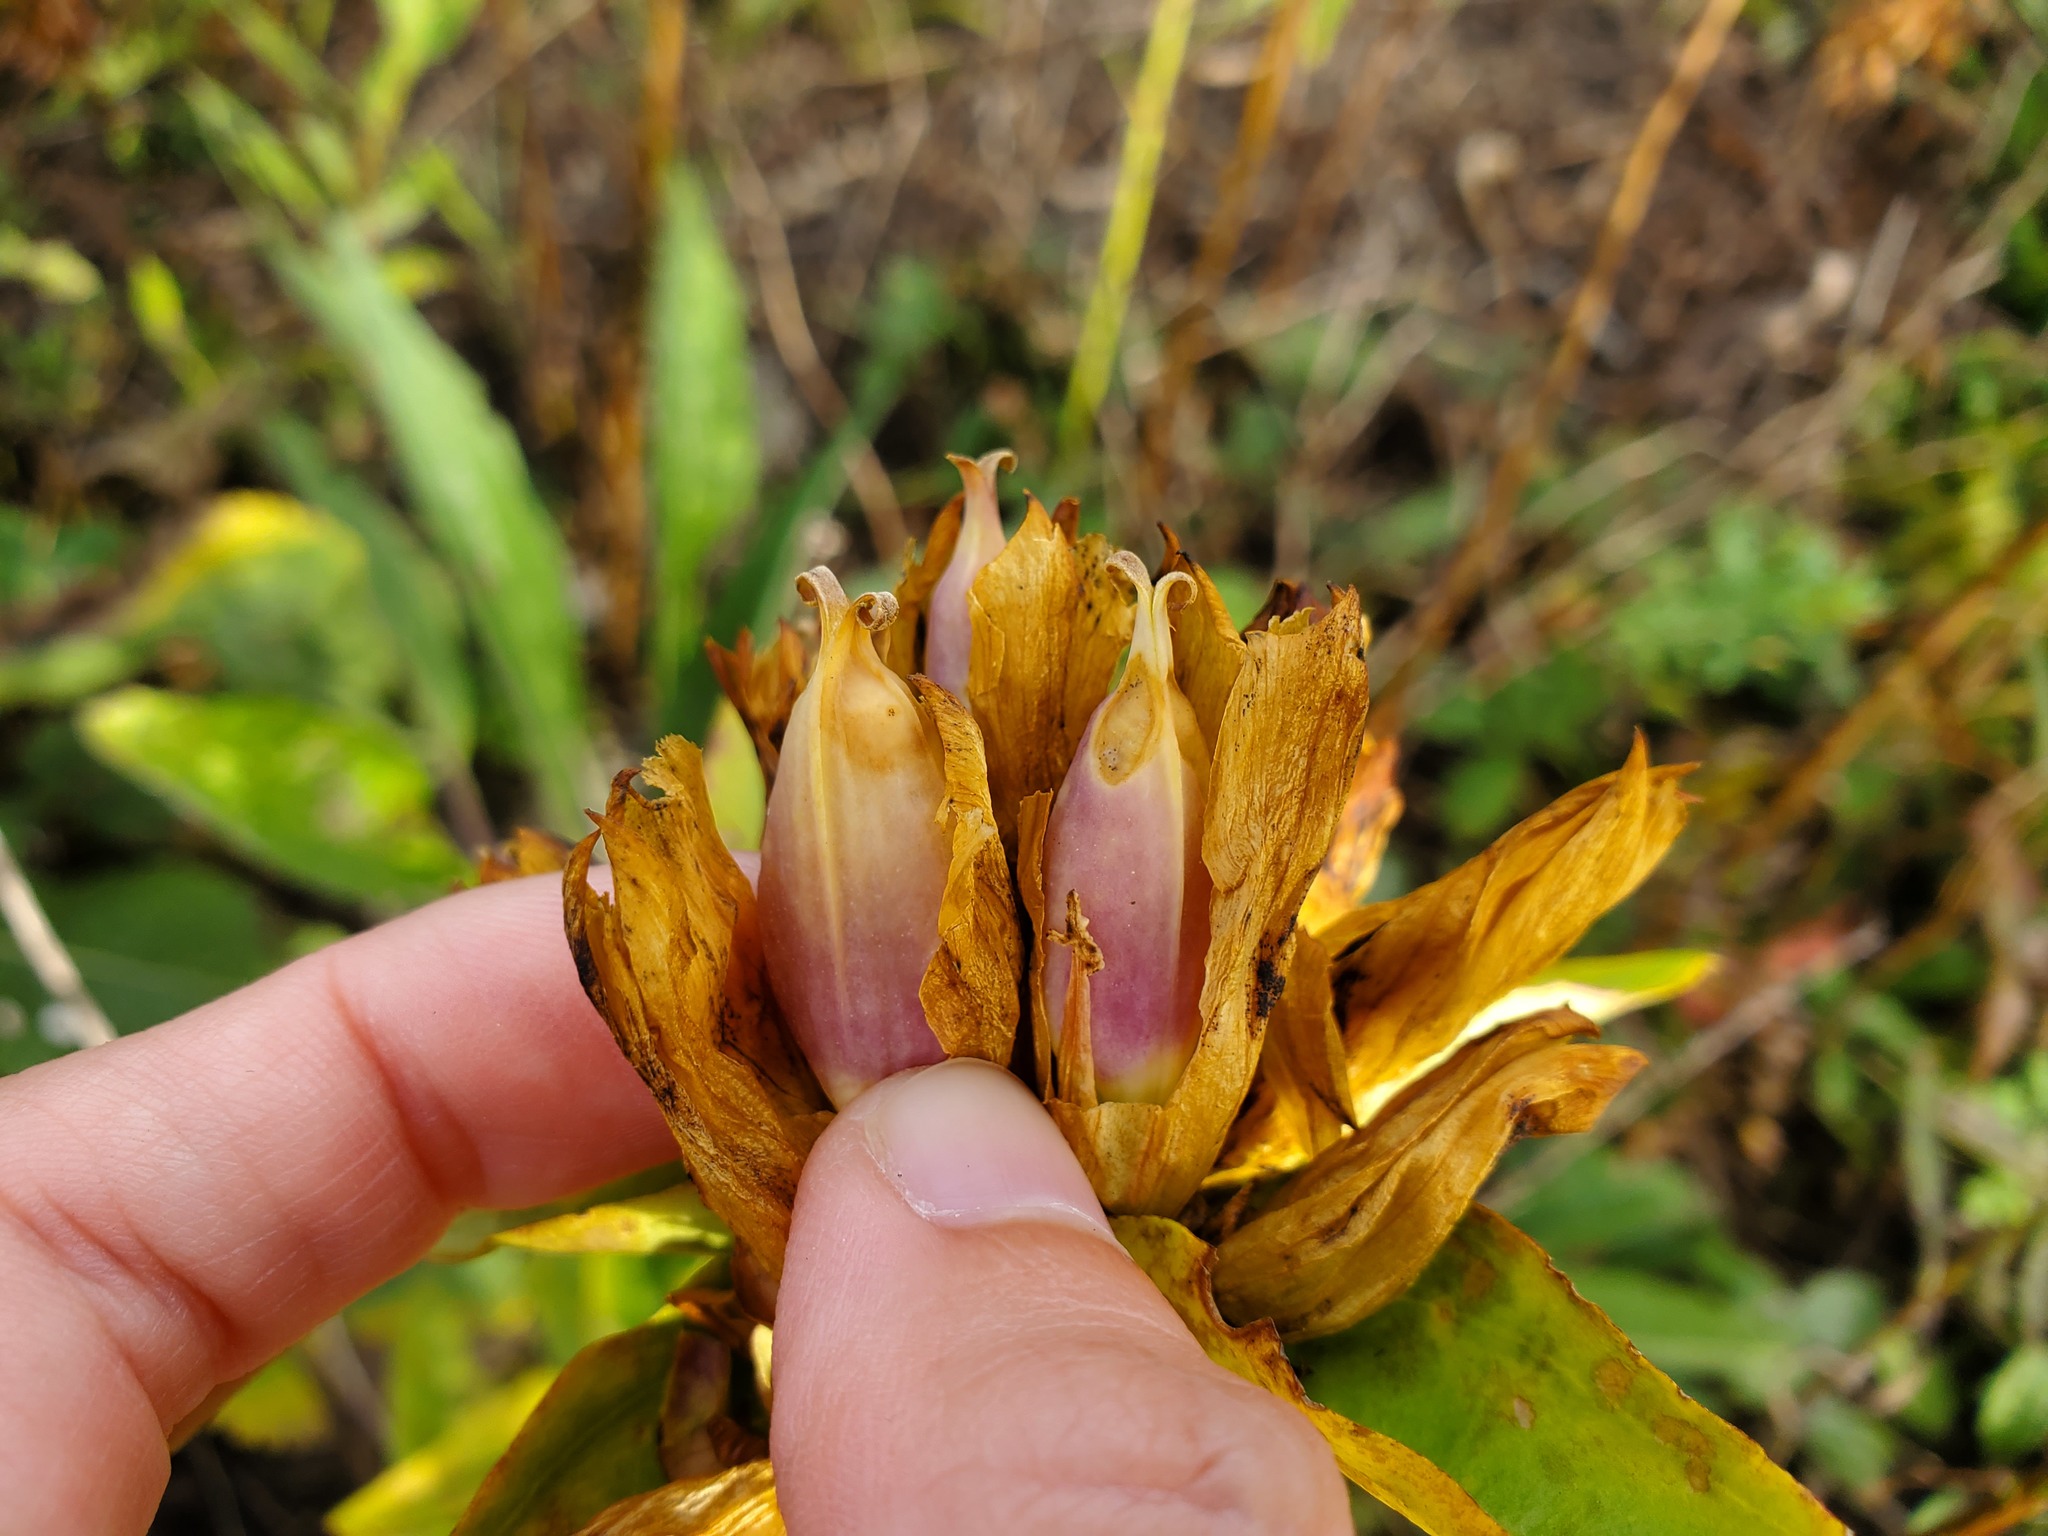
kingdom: Plantae
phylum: Tracheophyta
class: Magnoliopsida
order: Gentianales
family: Gentianaceae
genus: Gentiana
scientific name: Gentiana alba
